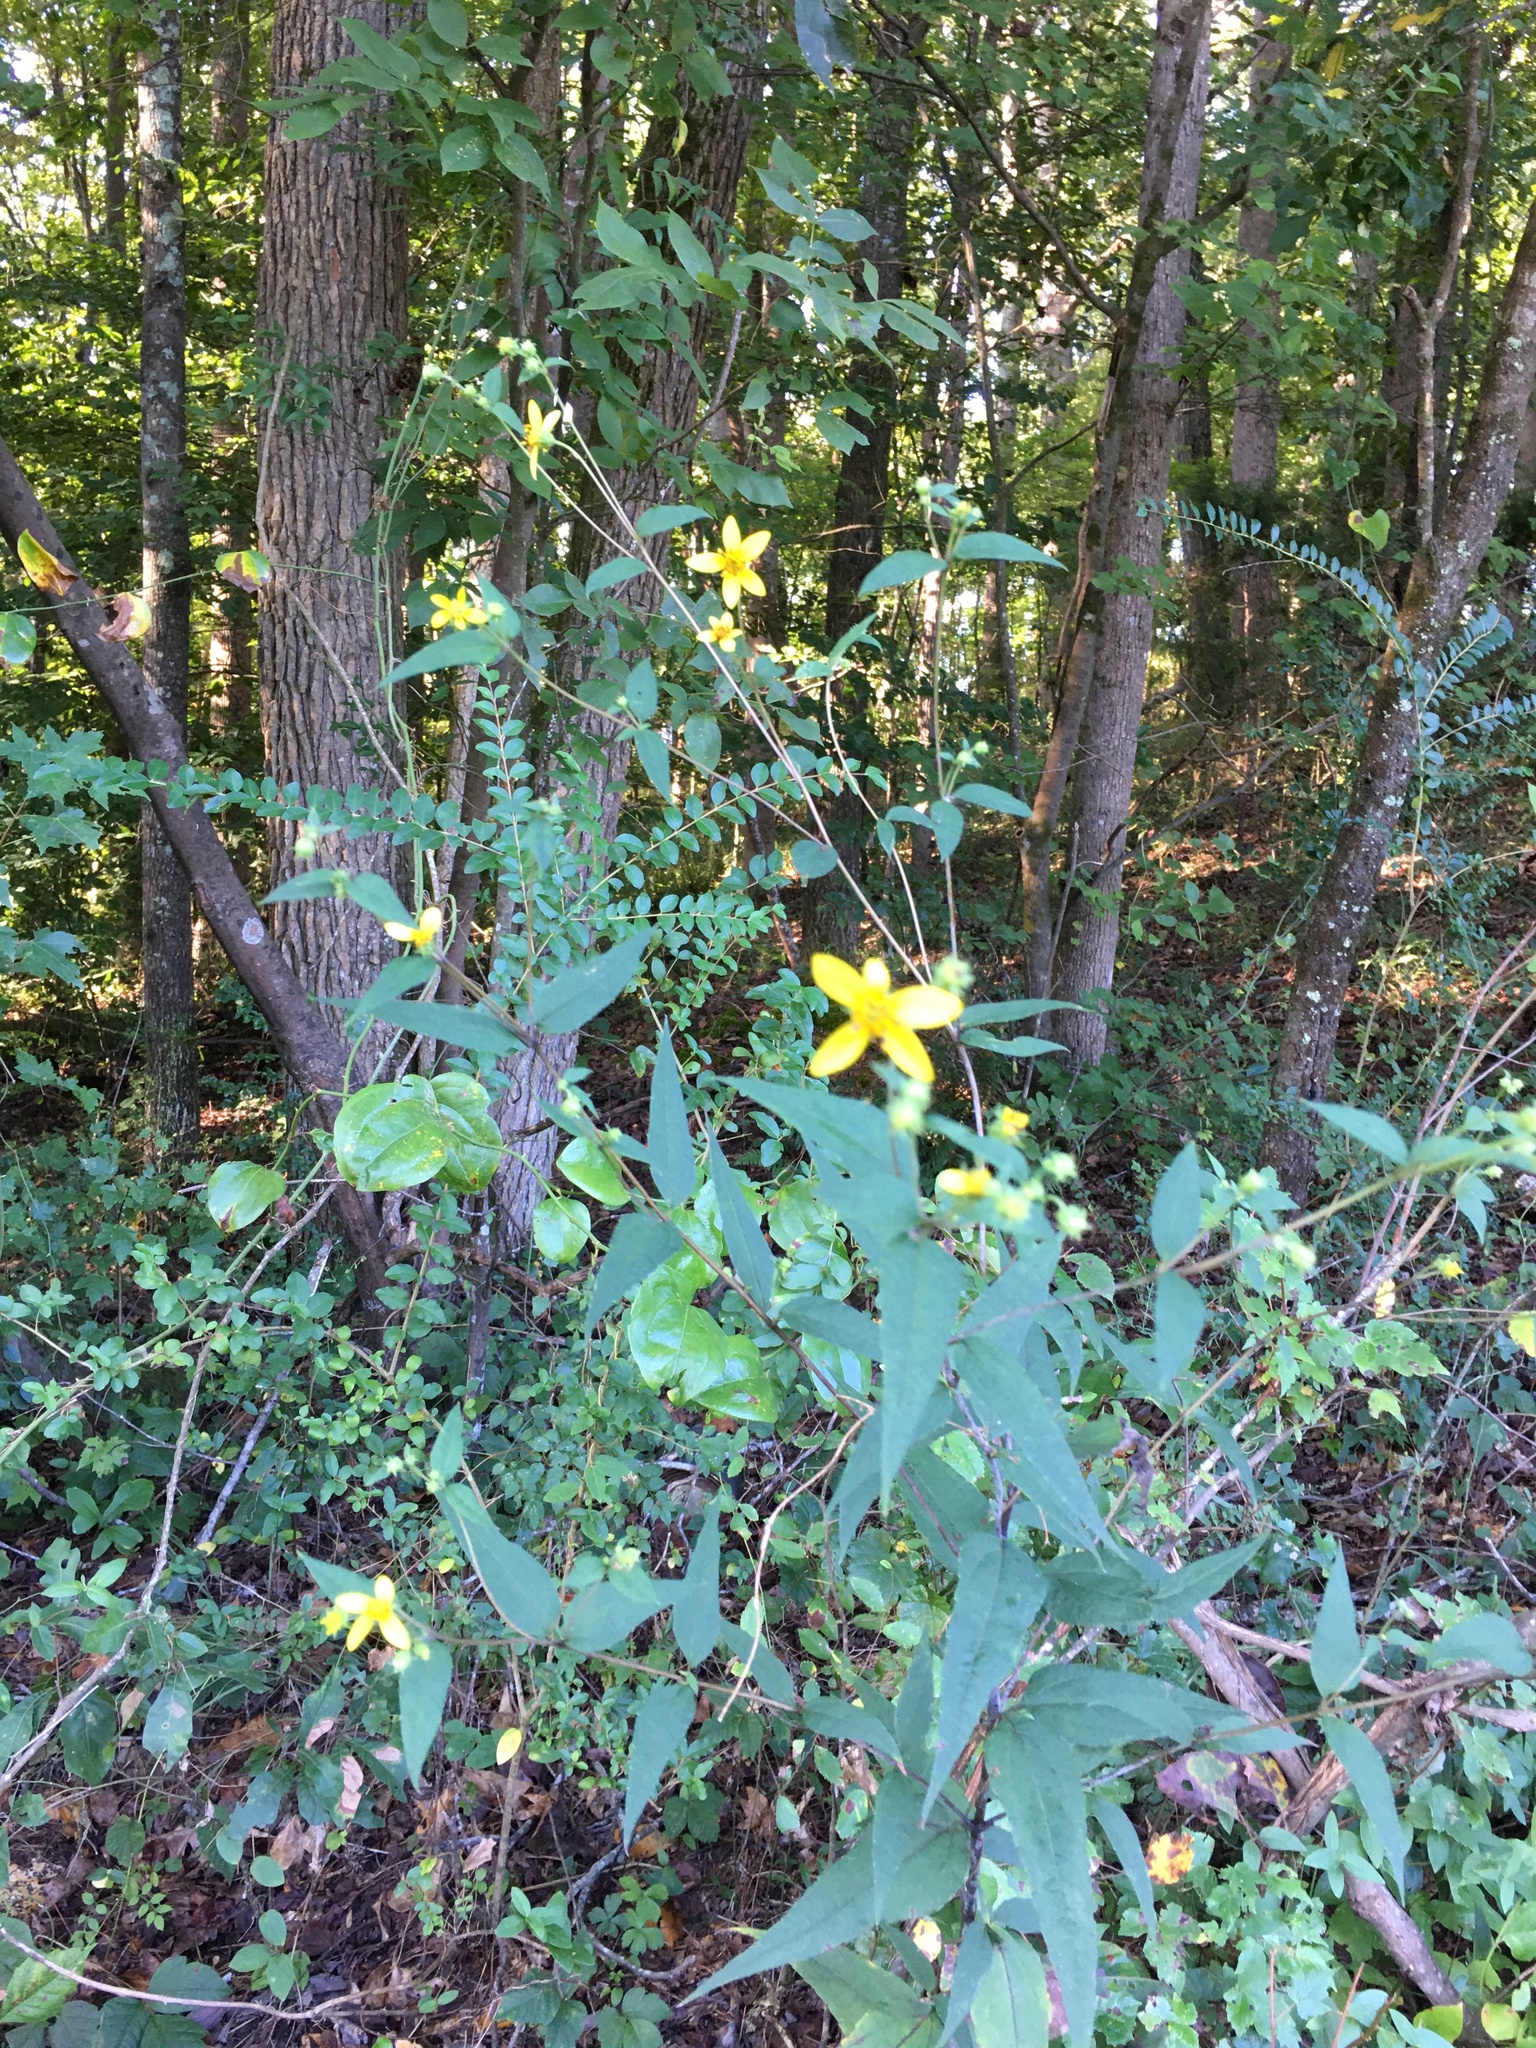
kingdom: Plantae
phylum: Tracheophyta
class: Magnoliopsida
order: Asterales
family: Asteraceae
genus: Helianthus
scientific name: Helianthus microcephalus
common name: Woodland sunflower
